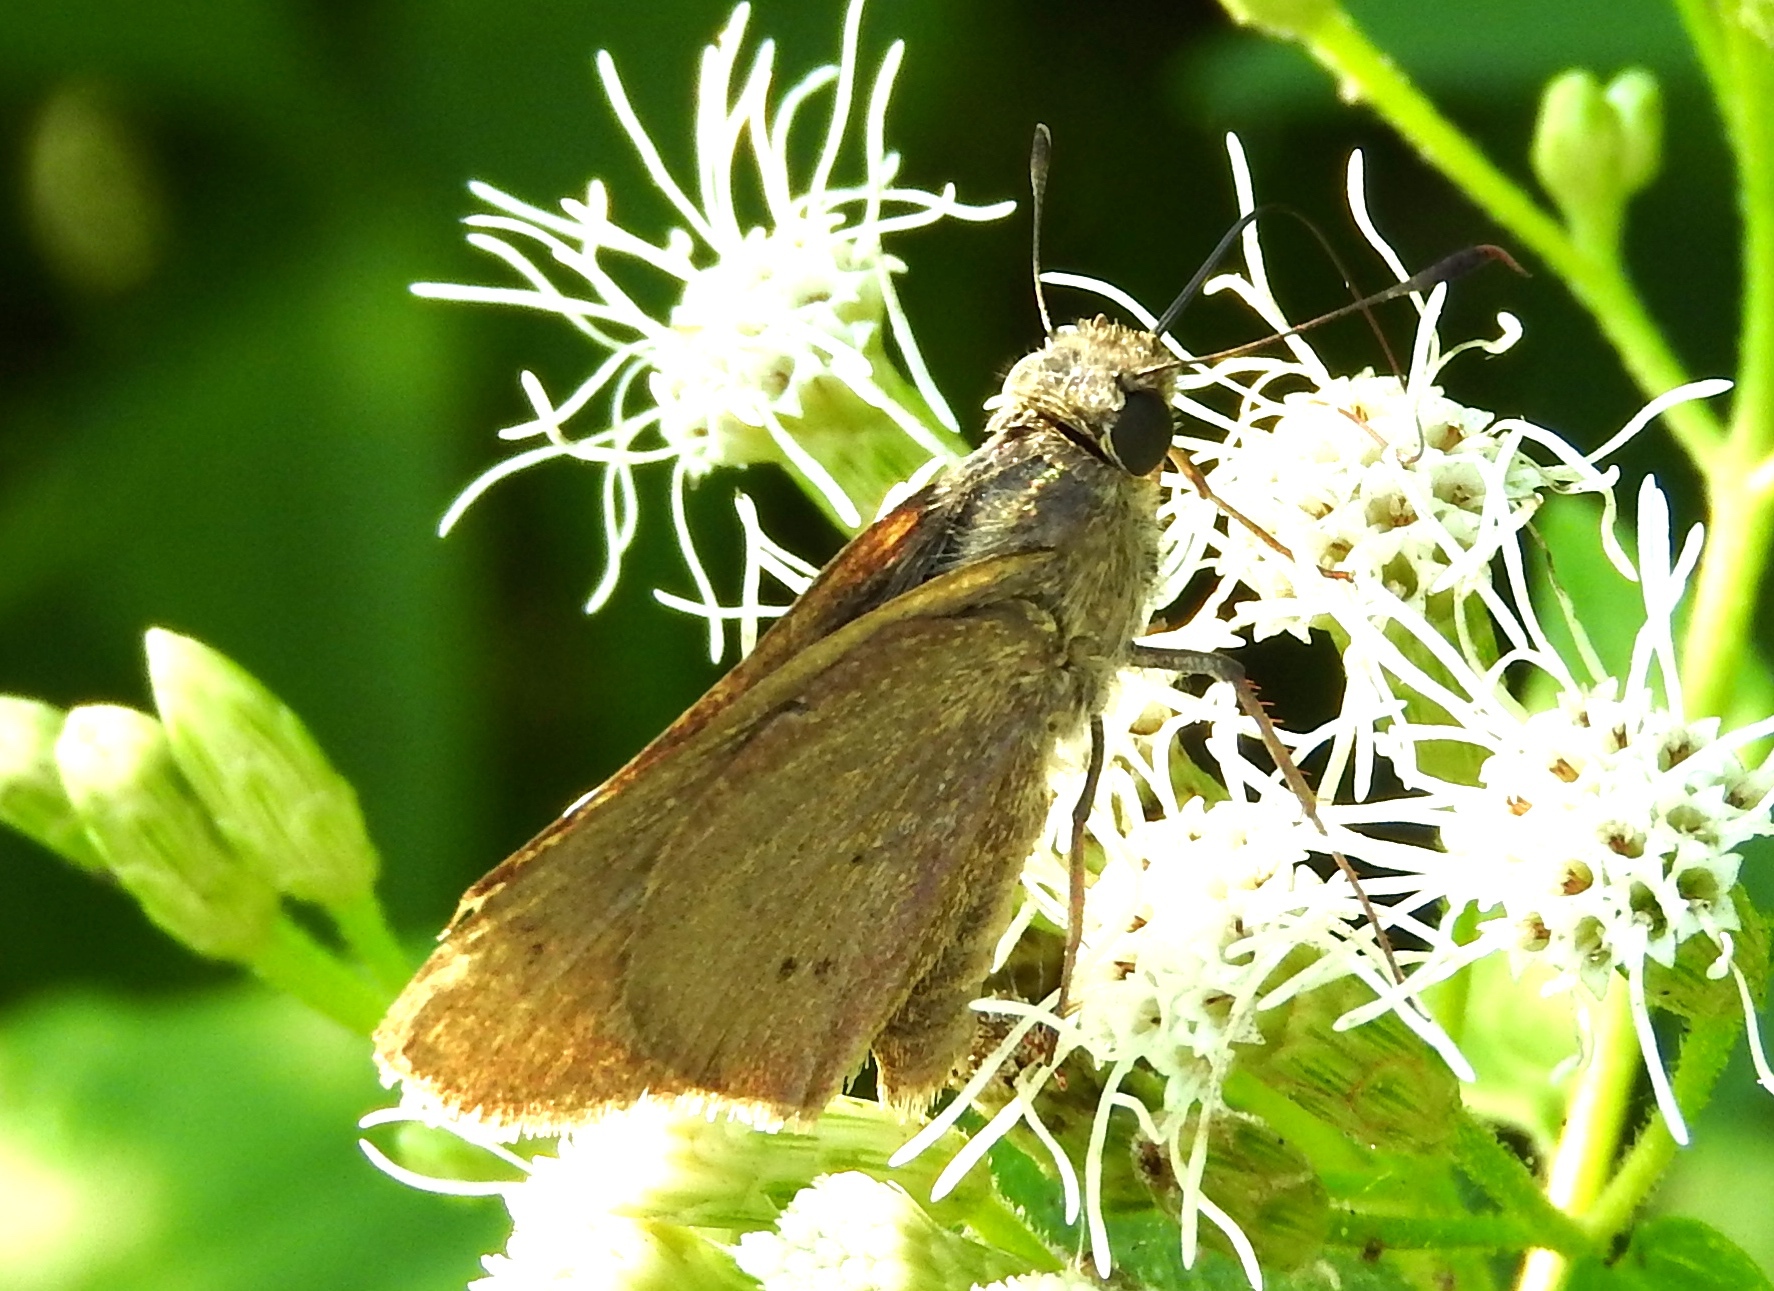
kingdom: Animalia
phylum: Arthropoda
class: Insecta
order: Lepidoptera
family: Hesperiidae
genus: Hylephila
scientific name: Hylephila phyleus
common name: Fiery skipper
